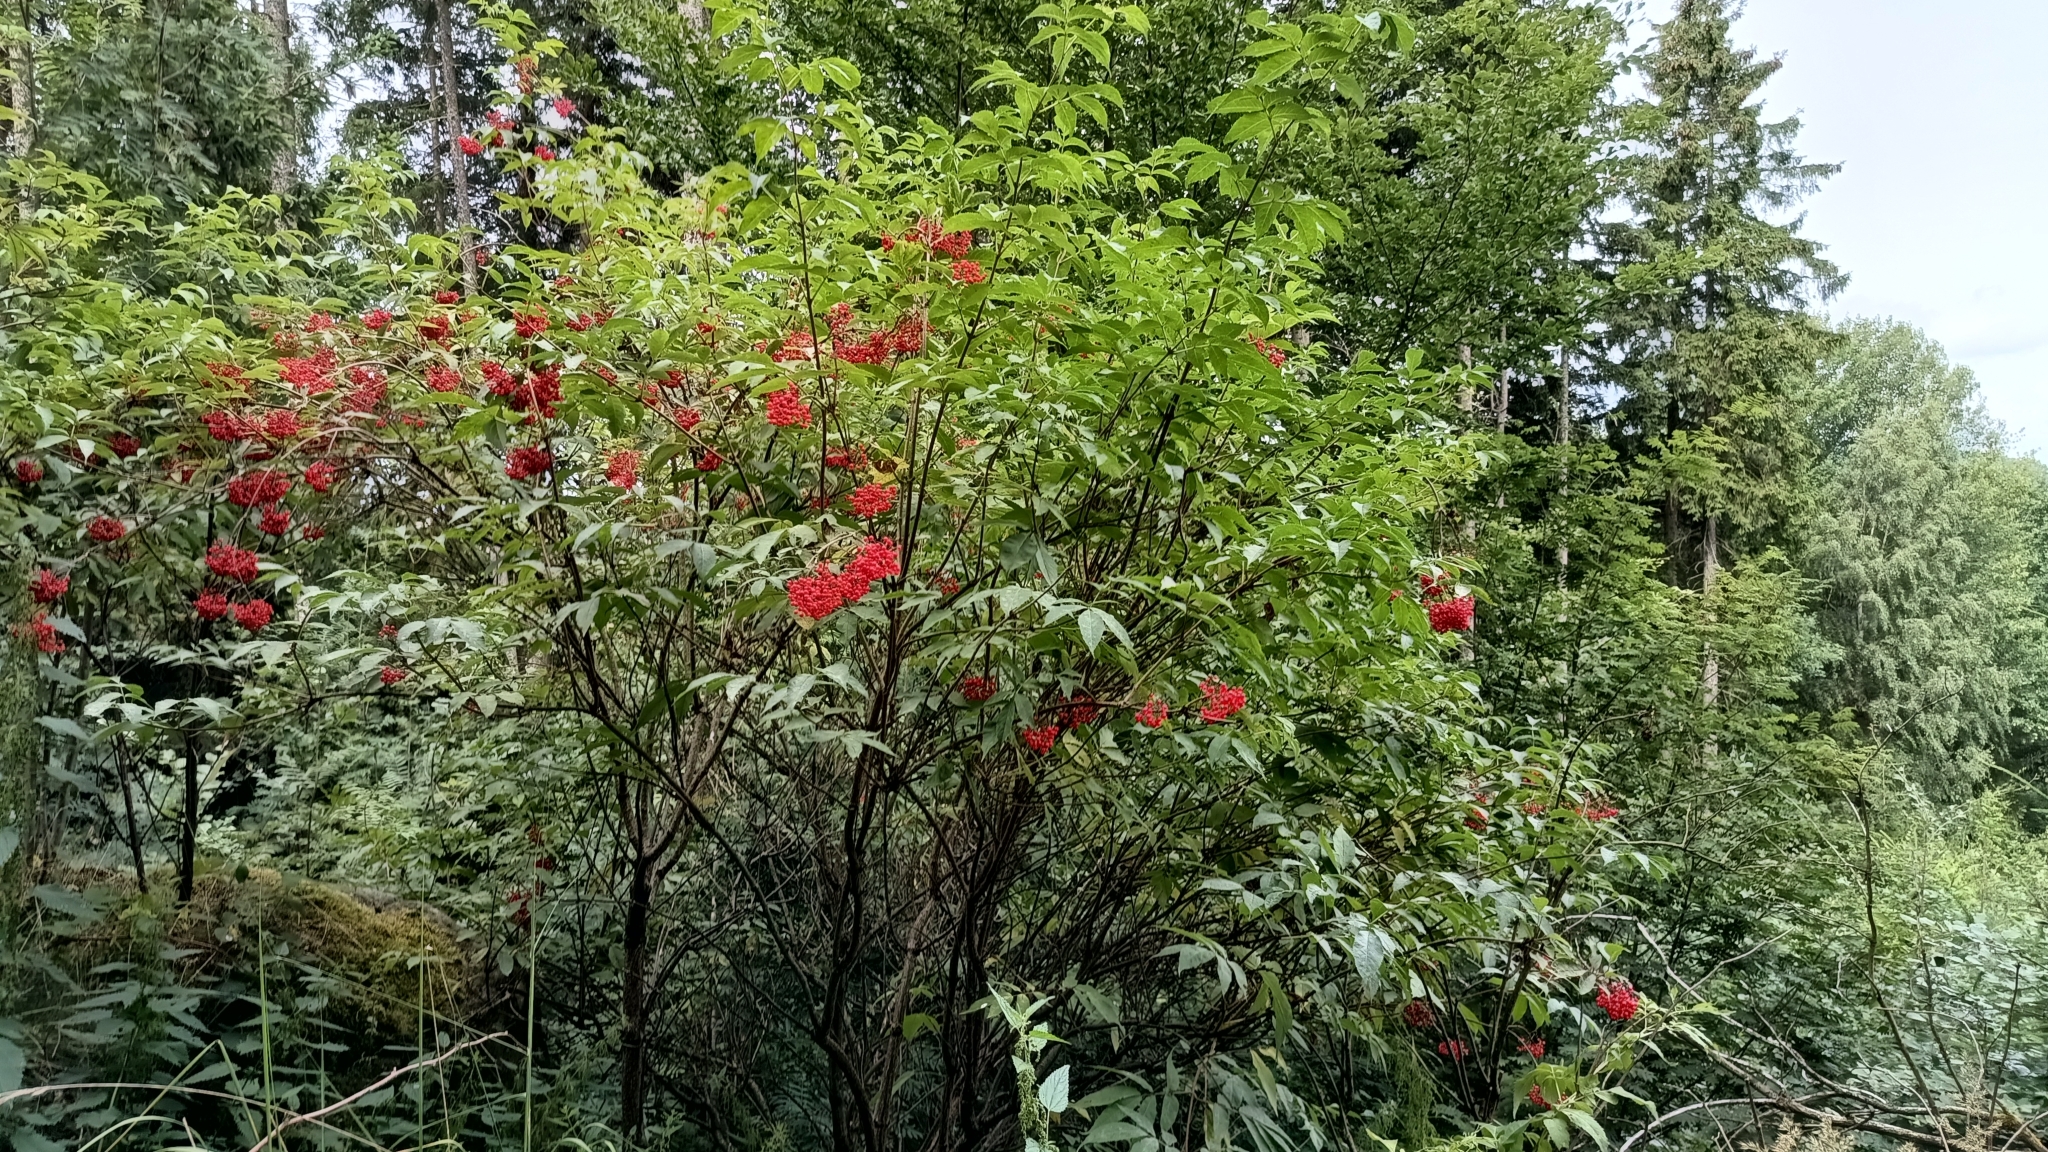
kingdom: Plantae
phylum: Tracheophyta
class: Magnoliopsida
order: Dipsacales
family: Viburnaceae
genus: Sambucus
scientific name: Sambucus racemosa
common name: Red-berried elder
